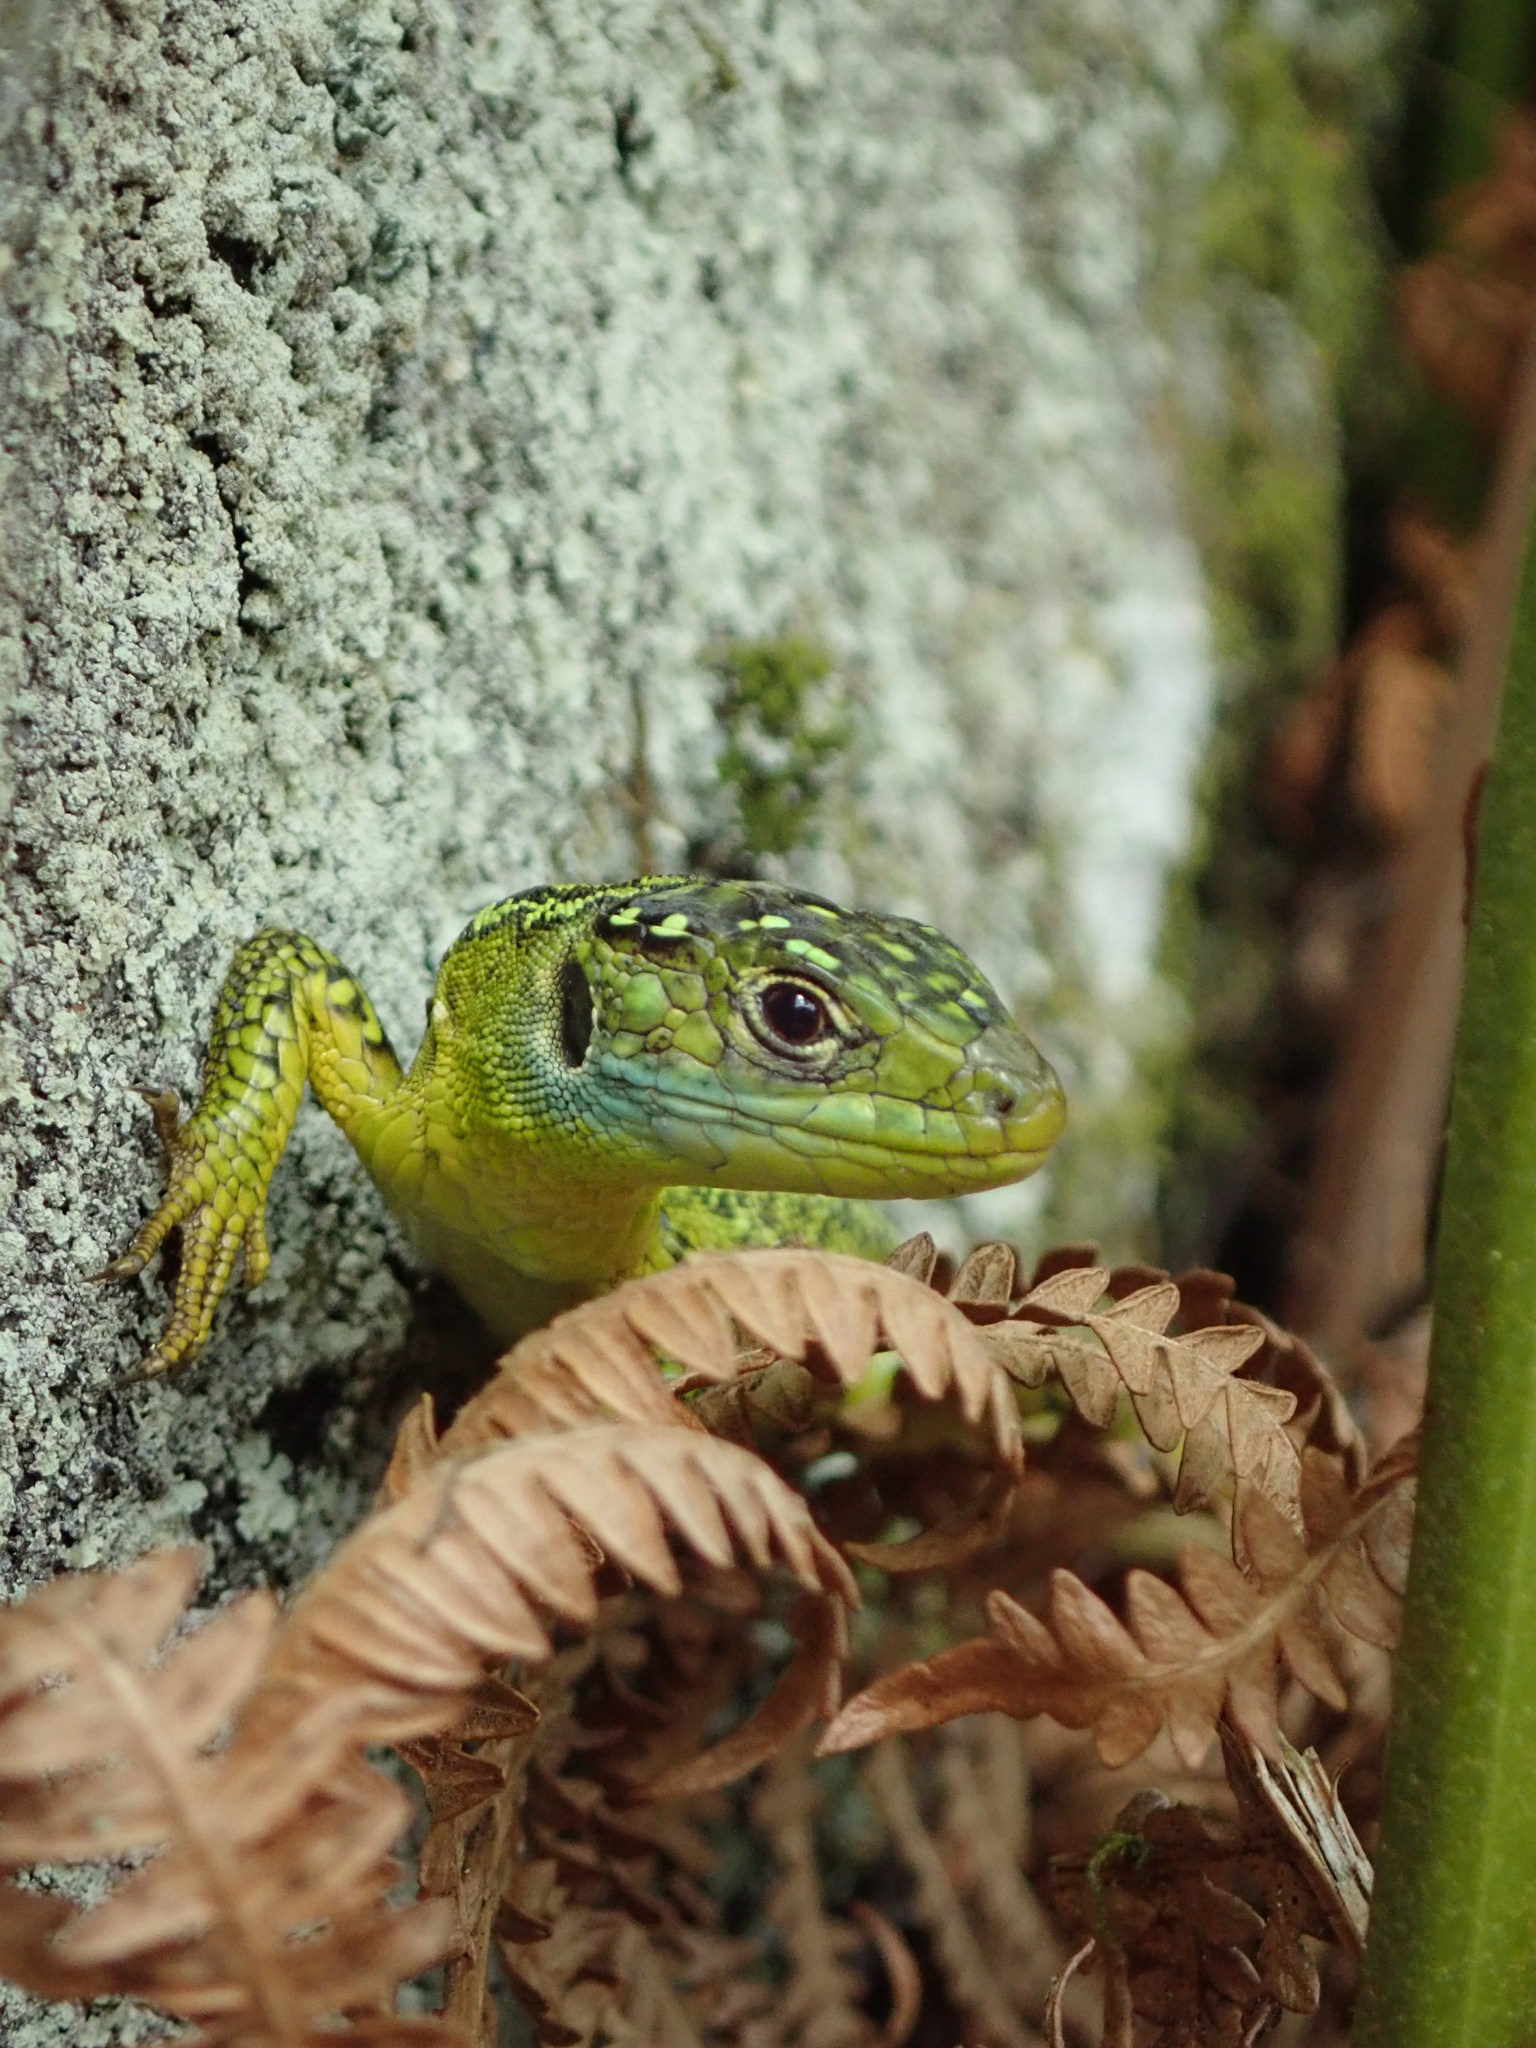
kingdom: Animalia
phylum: Chordata
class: Squamata
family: Lacertidae
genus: Lacerta
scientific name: Lacerta bilineata
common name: Western green lizard
